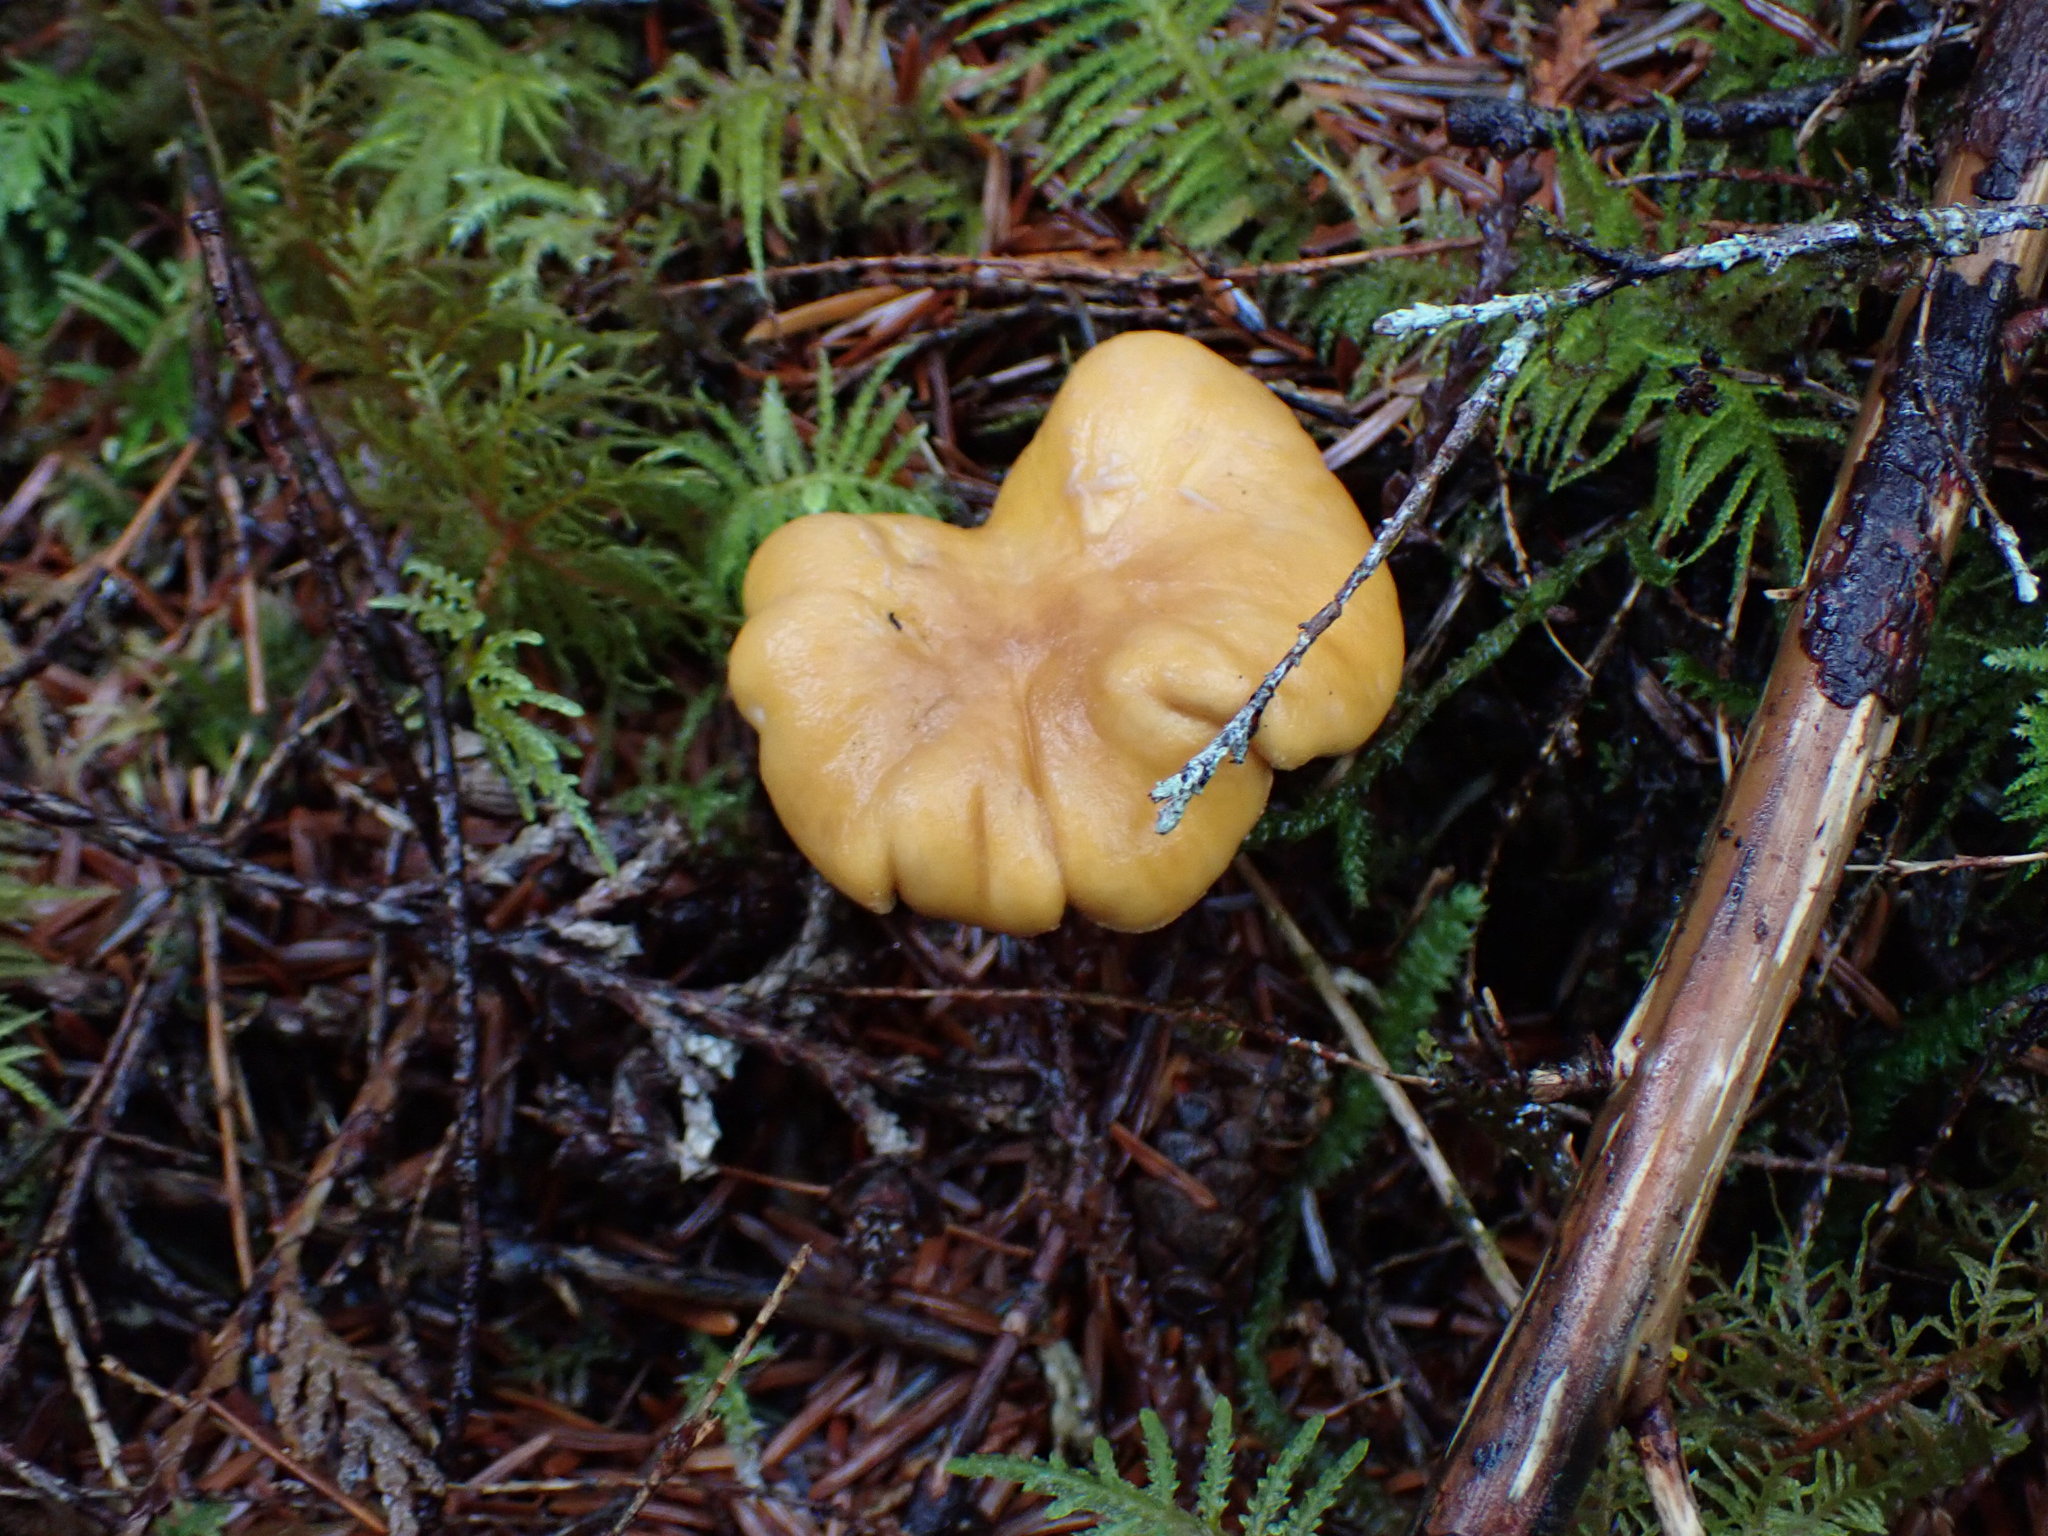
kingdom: Fungi
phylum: Basidiomycota
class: Agaricomycetes
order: Cantharellales
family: Hydnaceae
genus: Cantharellus
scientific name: Cantharellus formosus
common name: Pacific golden chanterelle
